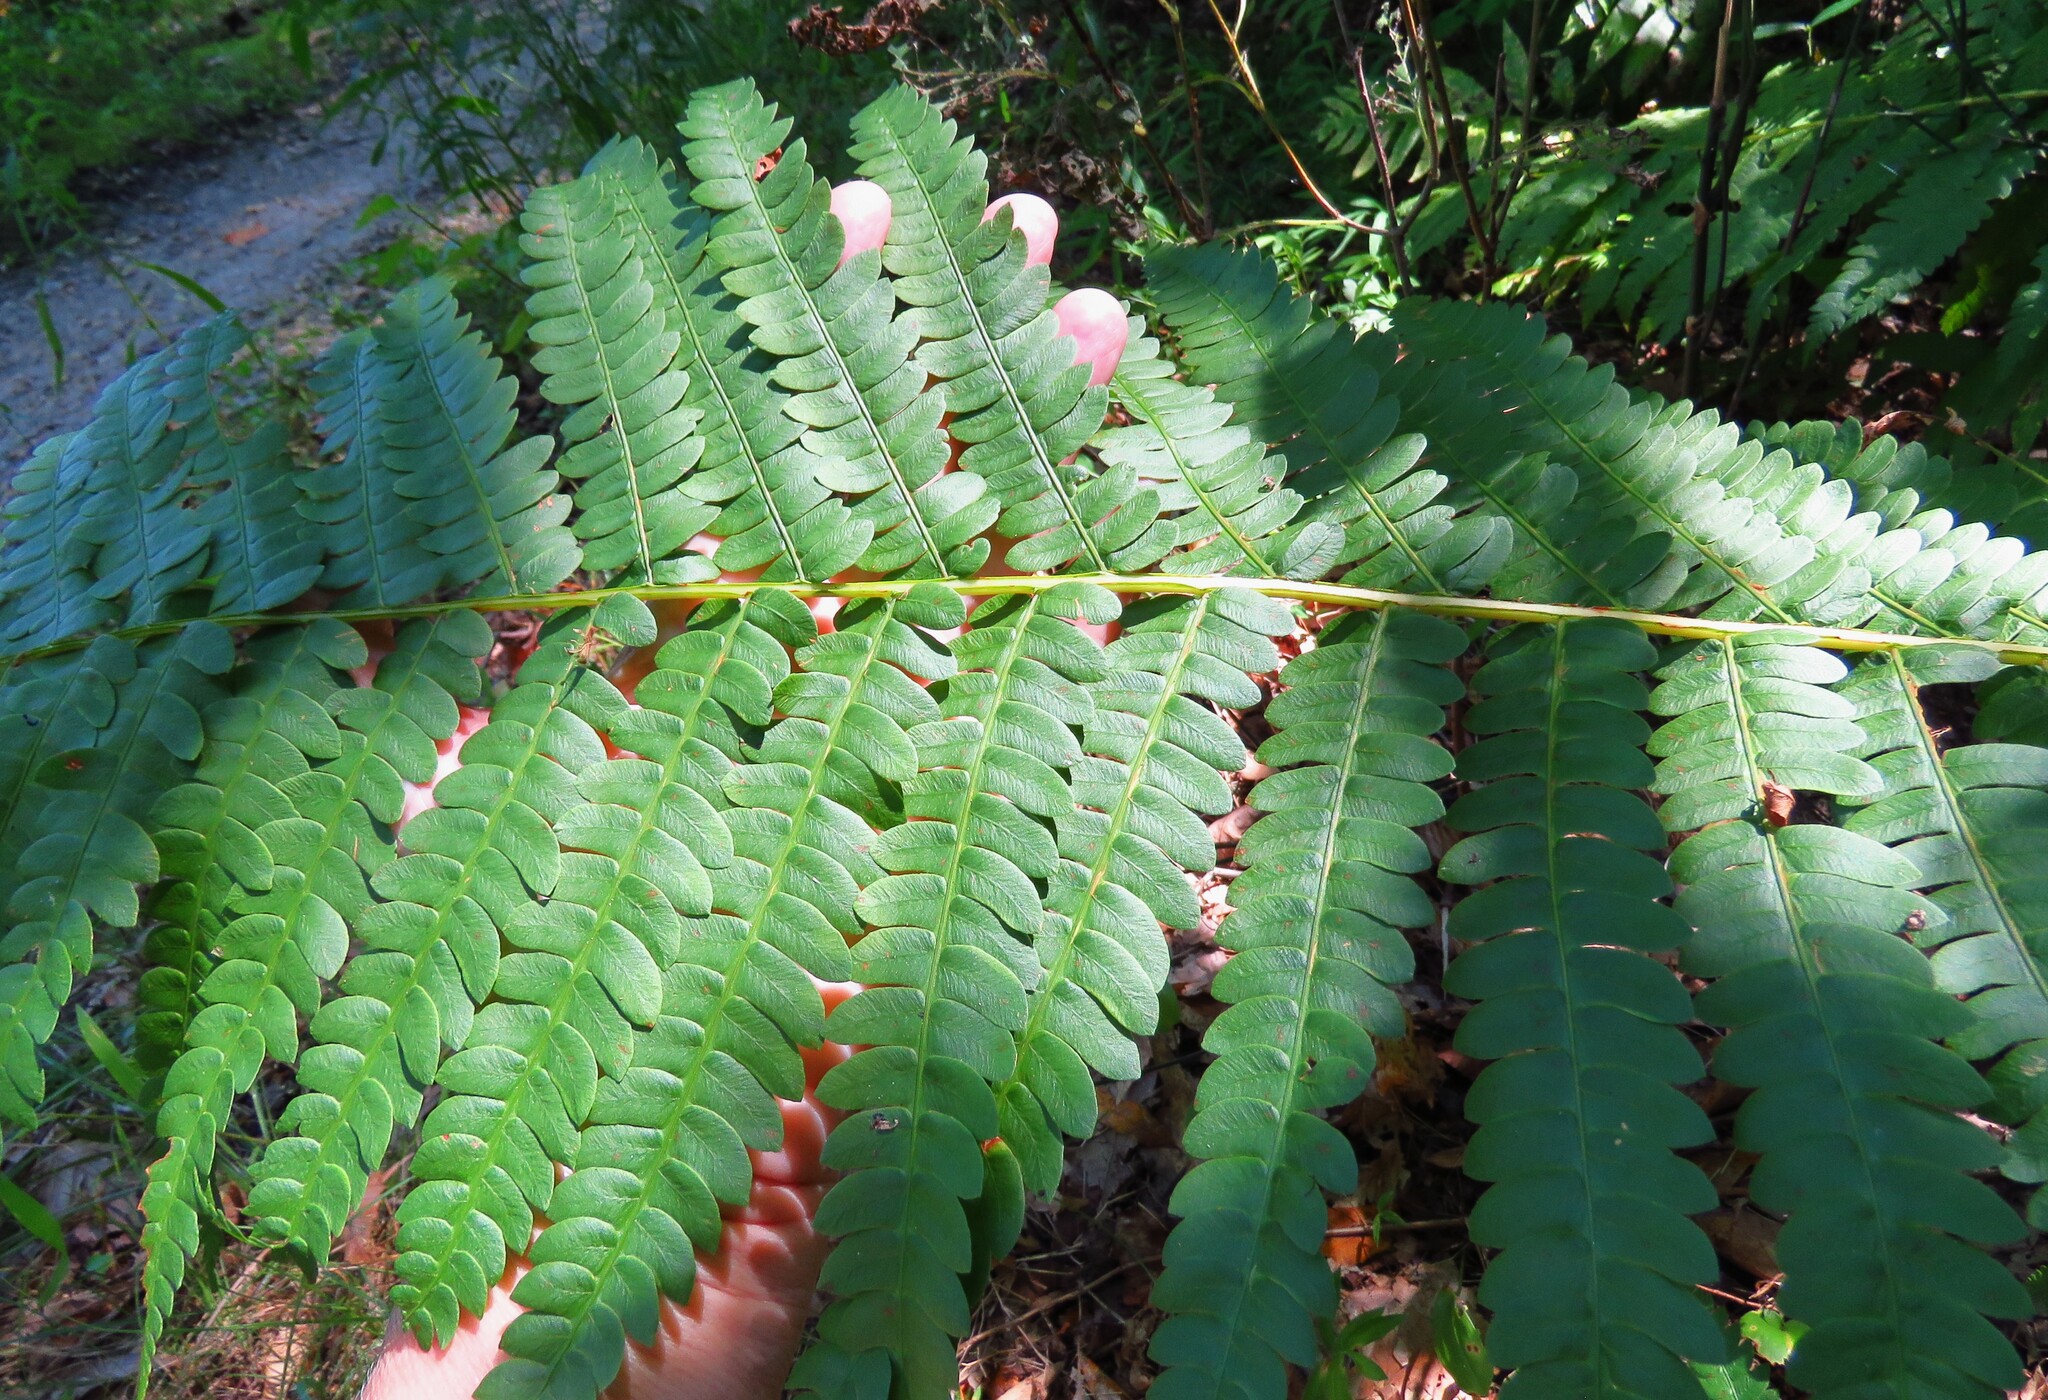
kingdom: Plantae
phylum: Tracheophyta
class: Polypodiopsida
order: Osmundales
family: Osmundaceae
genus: Osmundastrum
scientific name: Osmundastrum cinnamomeum
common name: Cinnamon fern
